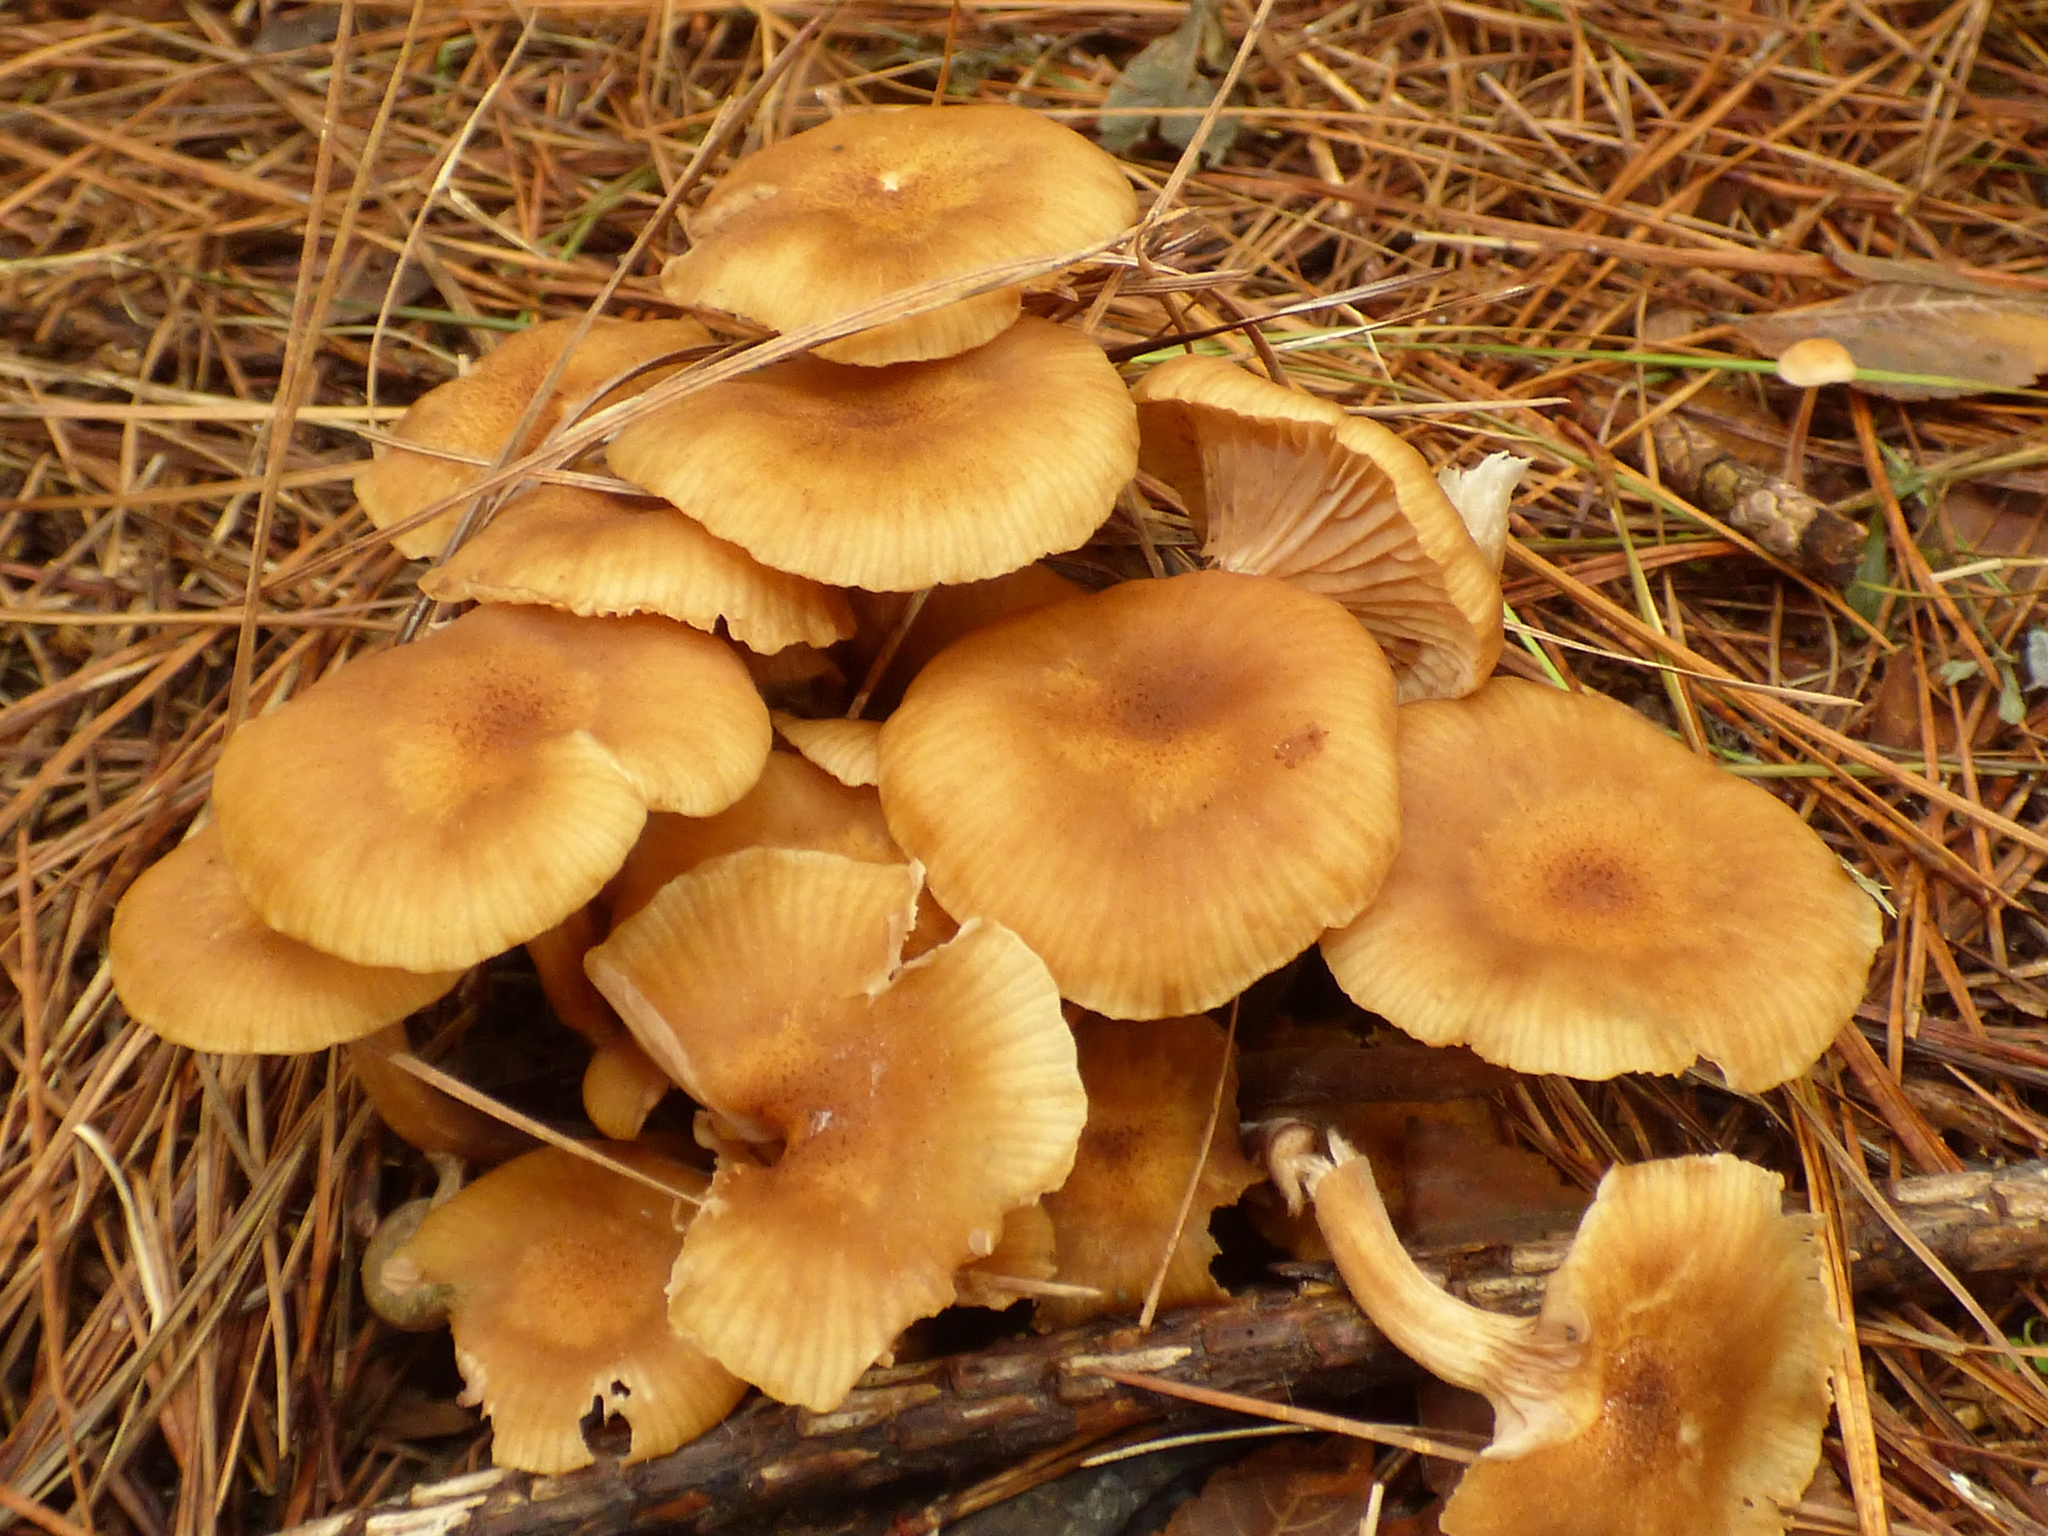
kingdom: Fungi
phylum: Basidiomycota
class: Agaricomycetes
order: Agaricales
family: Physalacriaceae
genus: Desarmillaria
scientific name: Desarmillaria caespitosa
